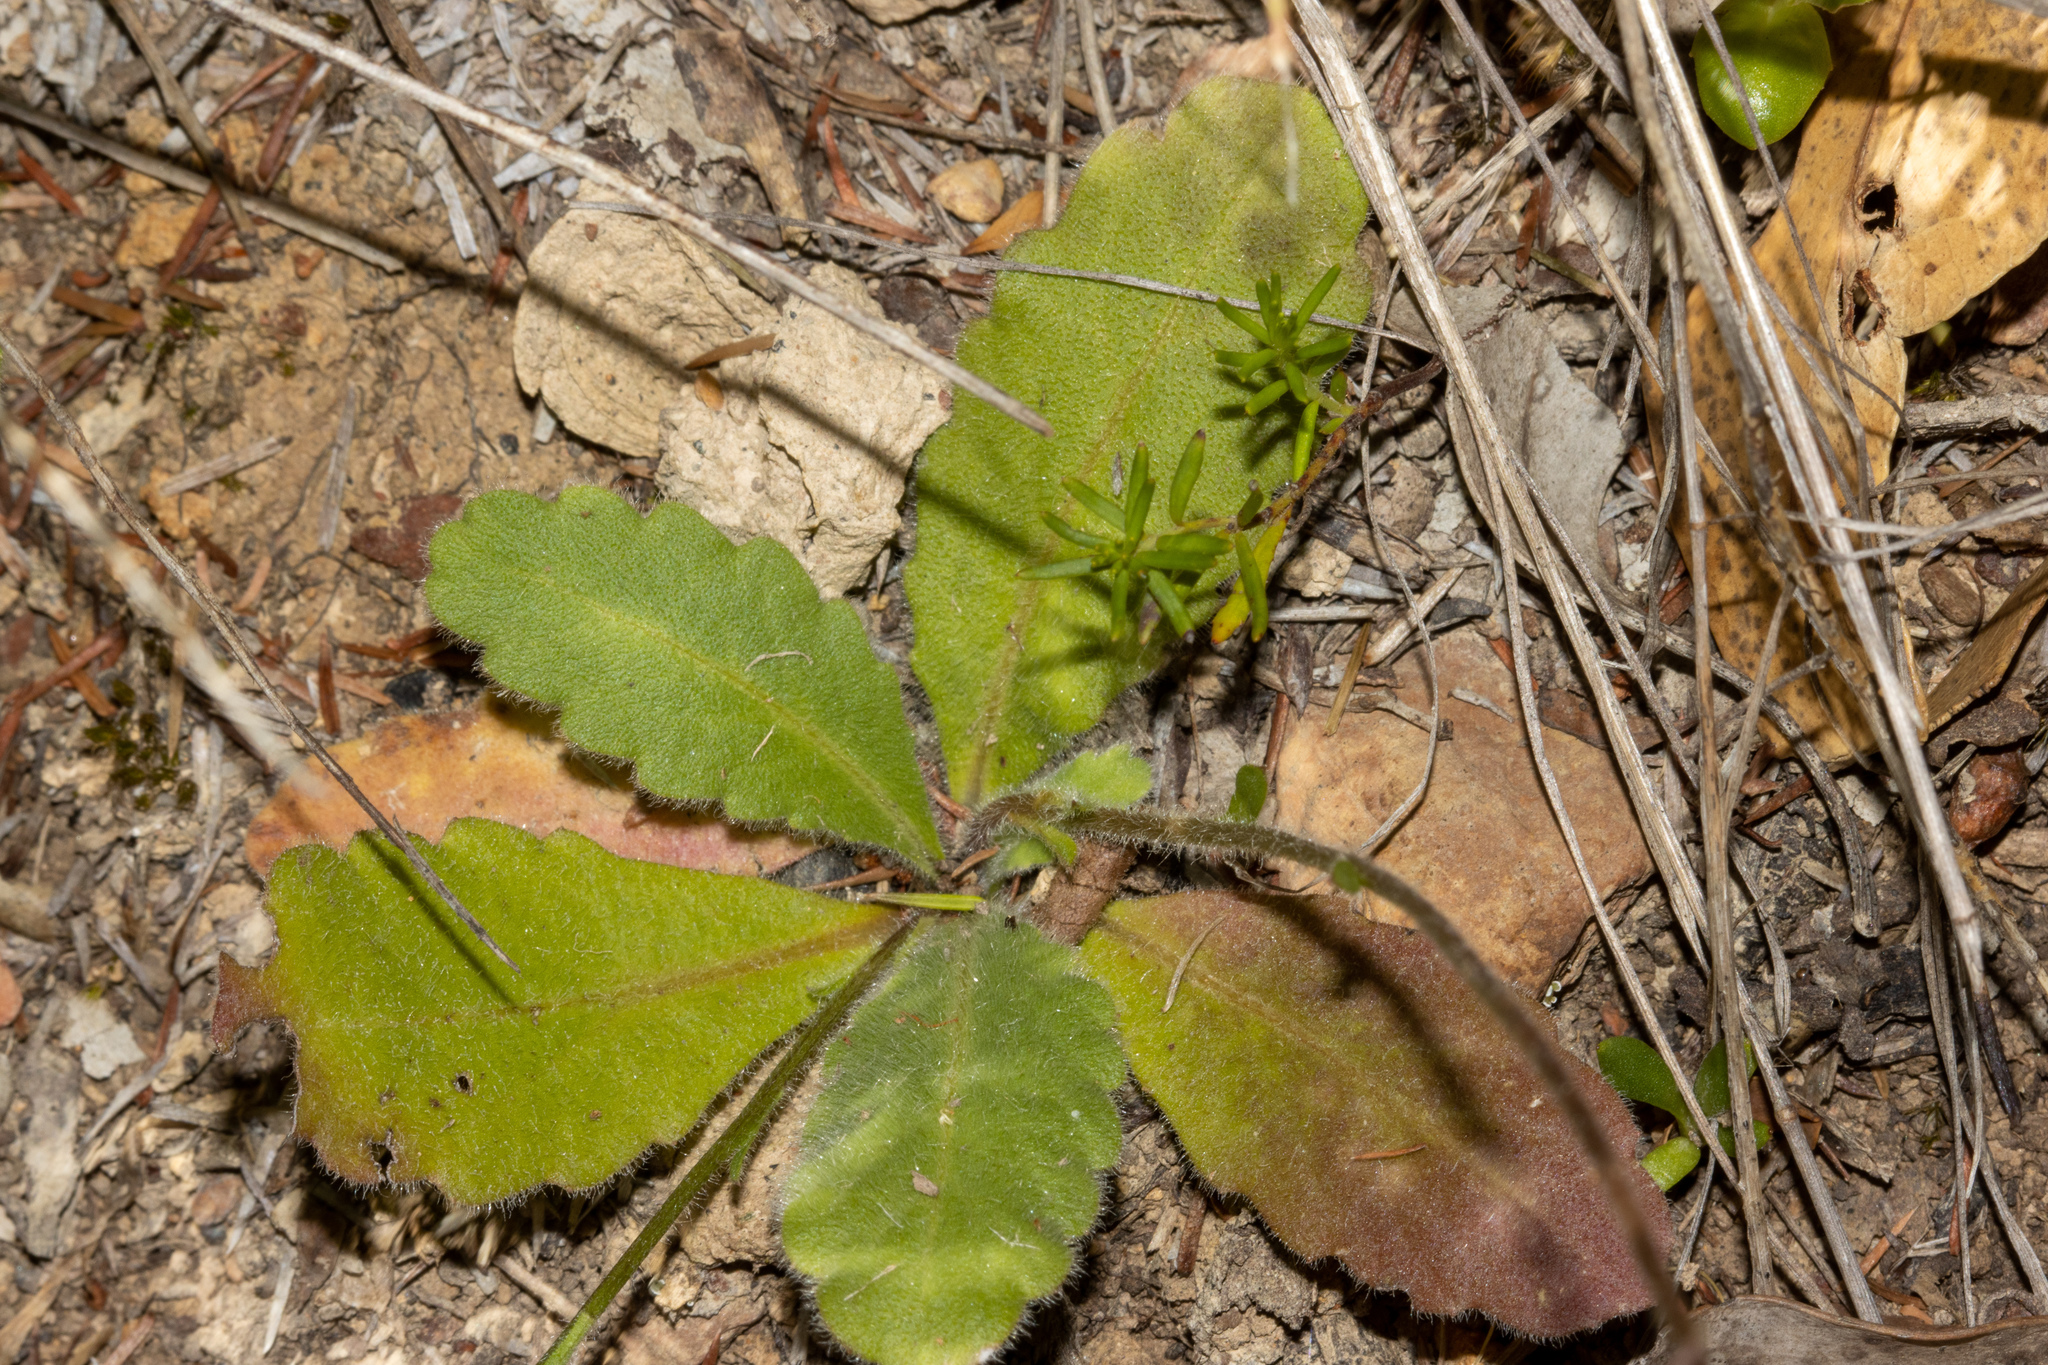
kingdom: Plantae
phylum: Tracheophyta
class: Magnoliopsida
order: Asterales
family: Asteraceae
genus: Lagenophora
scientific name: Lagenophora huegelii
